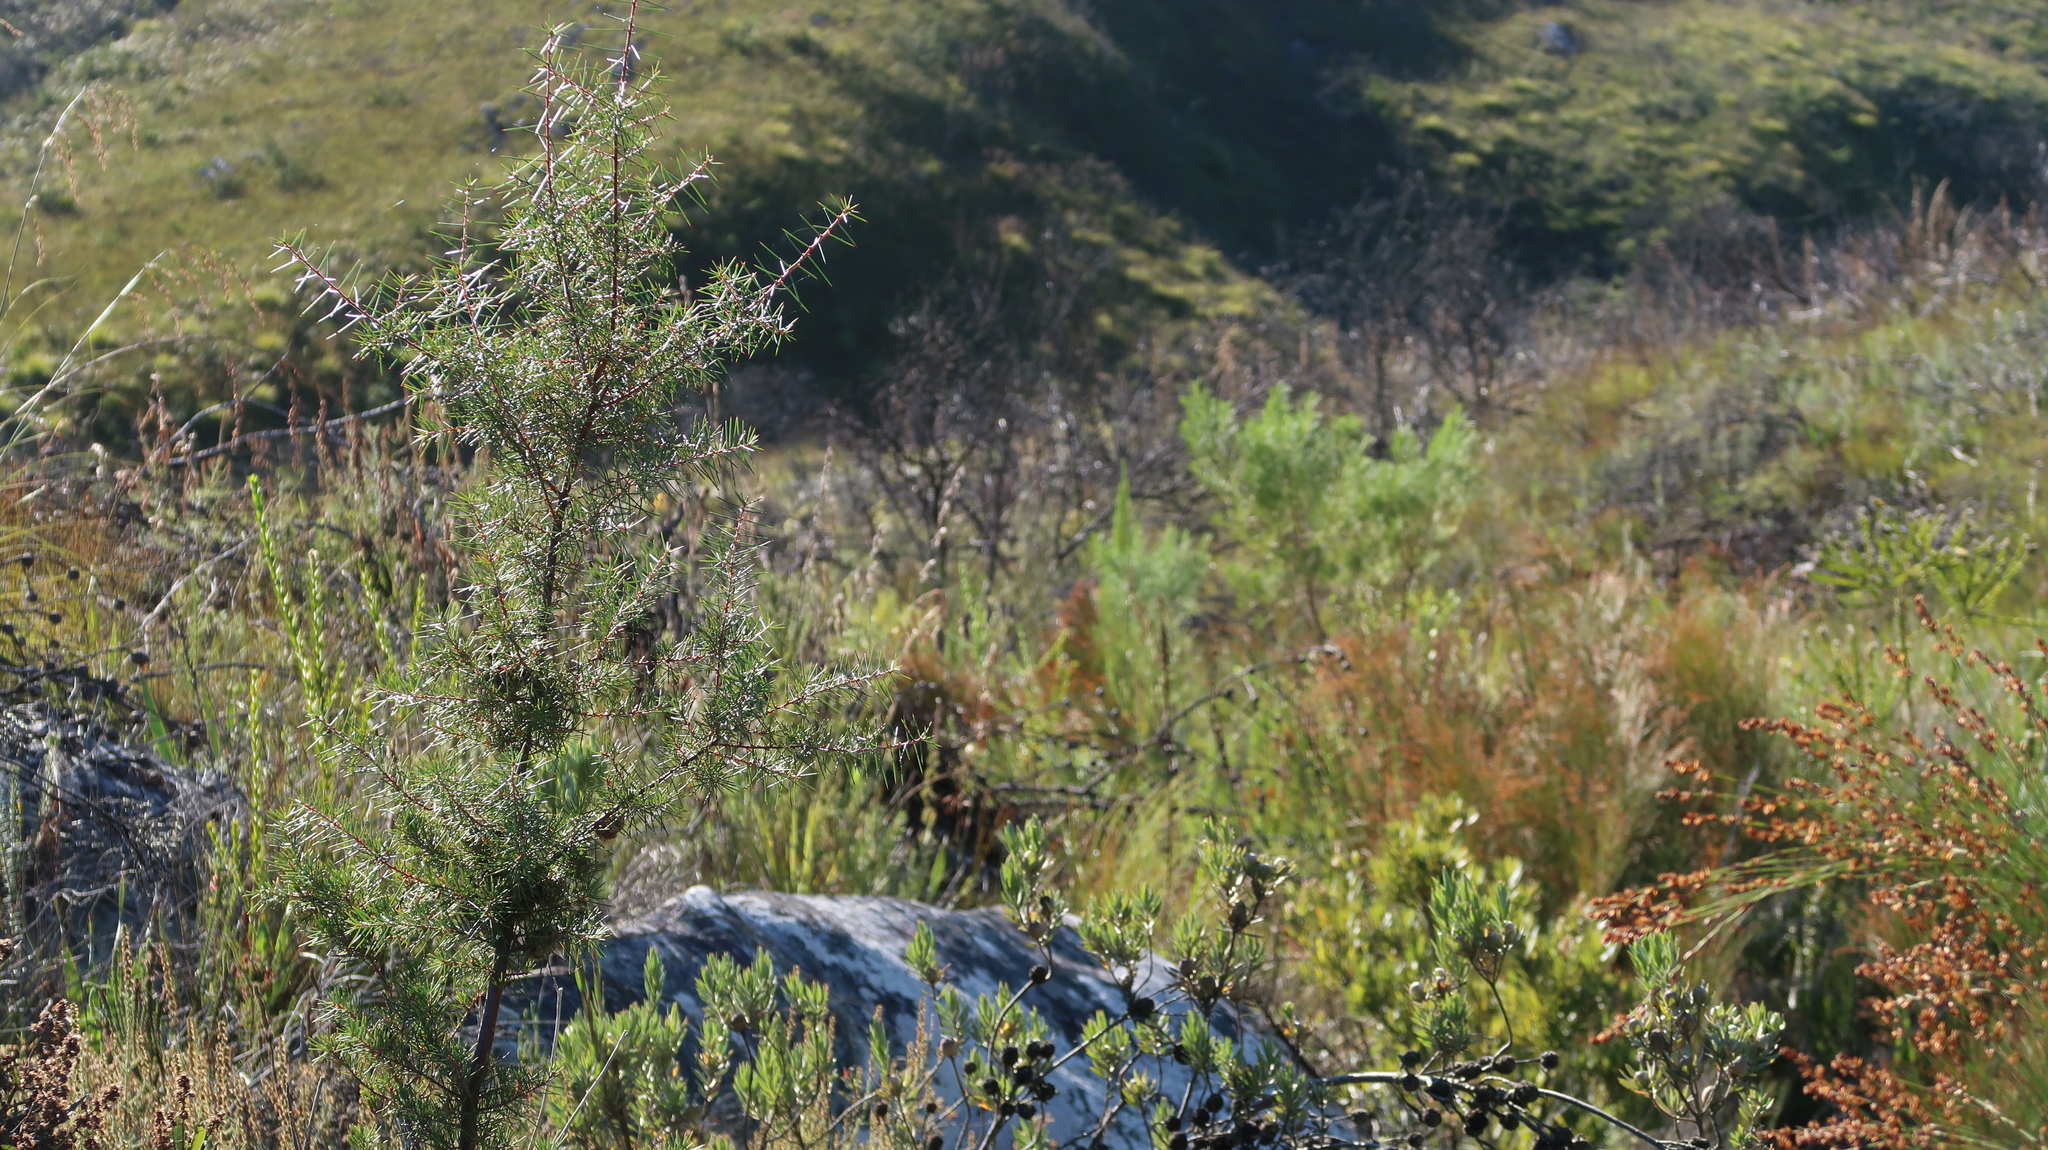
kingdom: Plantae
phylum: Tracheophyta
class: Magnoliopsida
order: Proteales
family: Proteaceae
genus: Hakea
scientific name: Hakea sericea
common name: Needle bush
